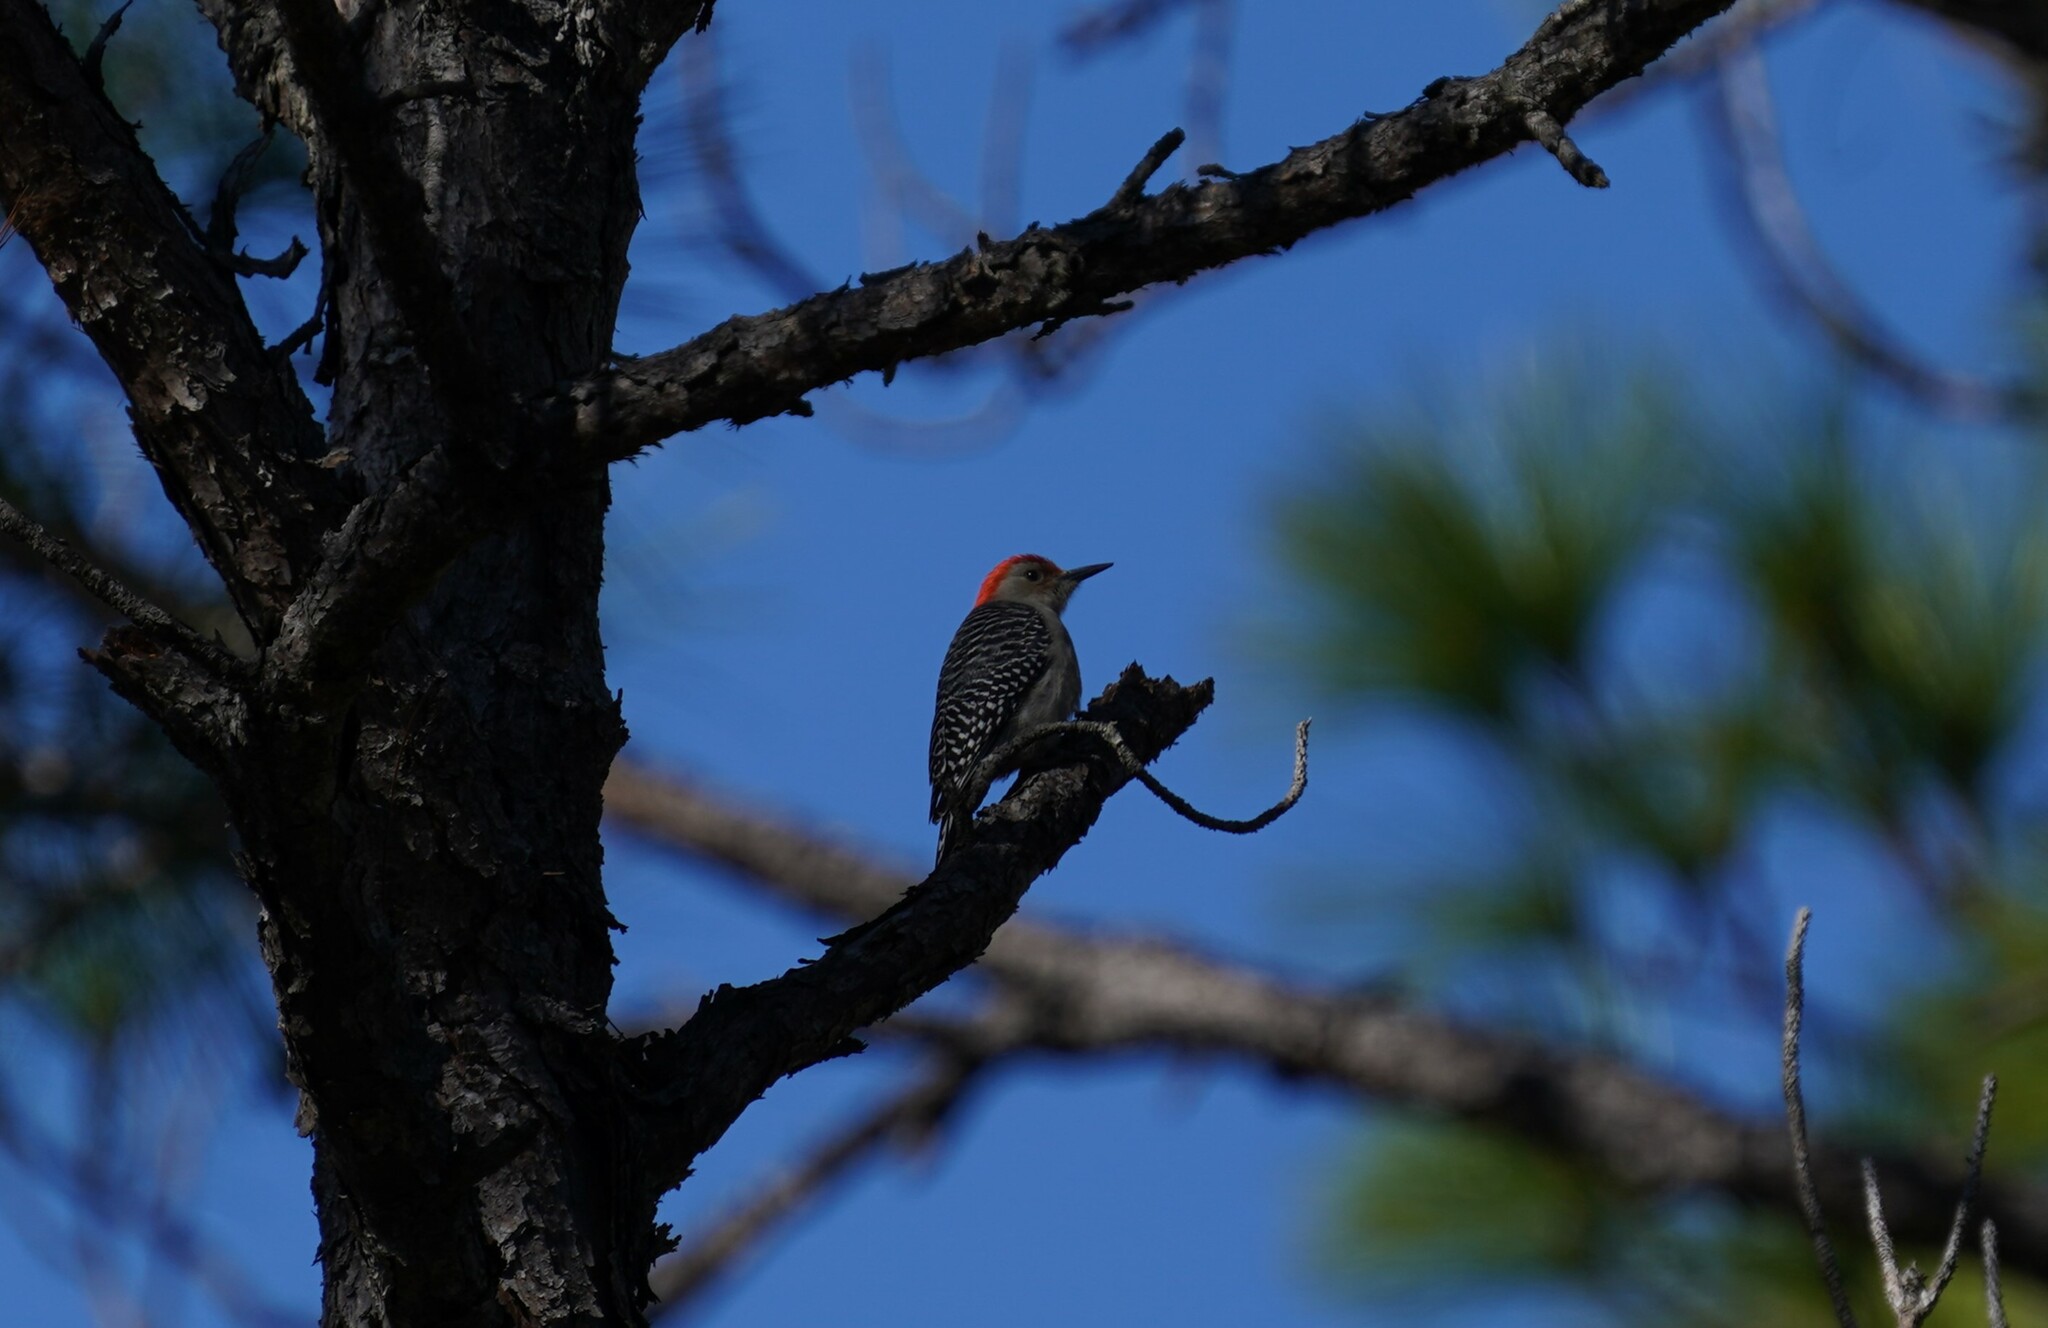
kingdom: Animalia
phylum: Chordata
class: Aves
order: Piciformes
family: Picidae
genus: Melanerpes
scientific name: Melanerpes carolinus
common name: Red-bellied woodpecker
